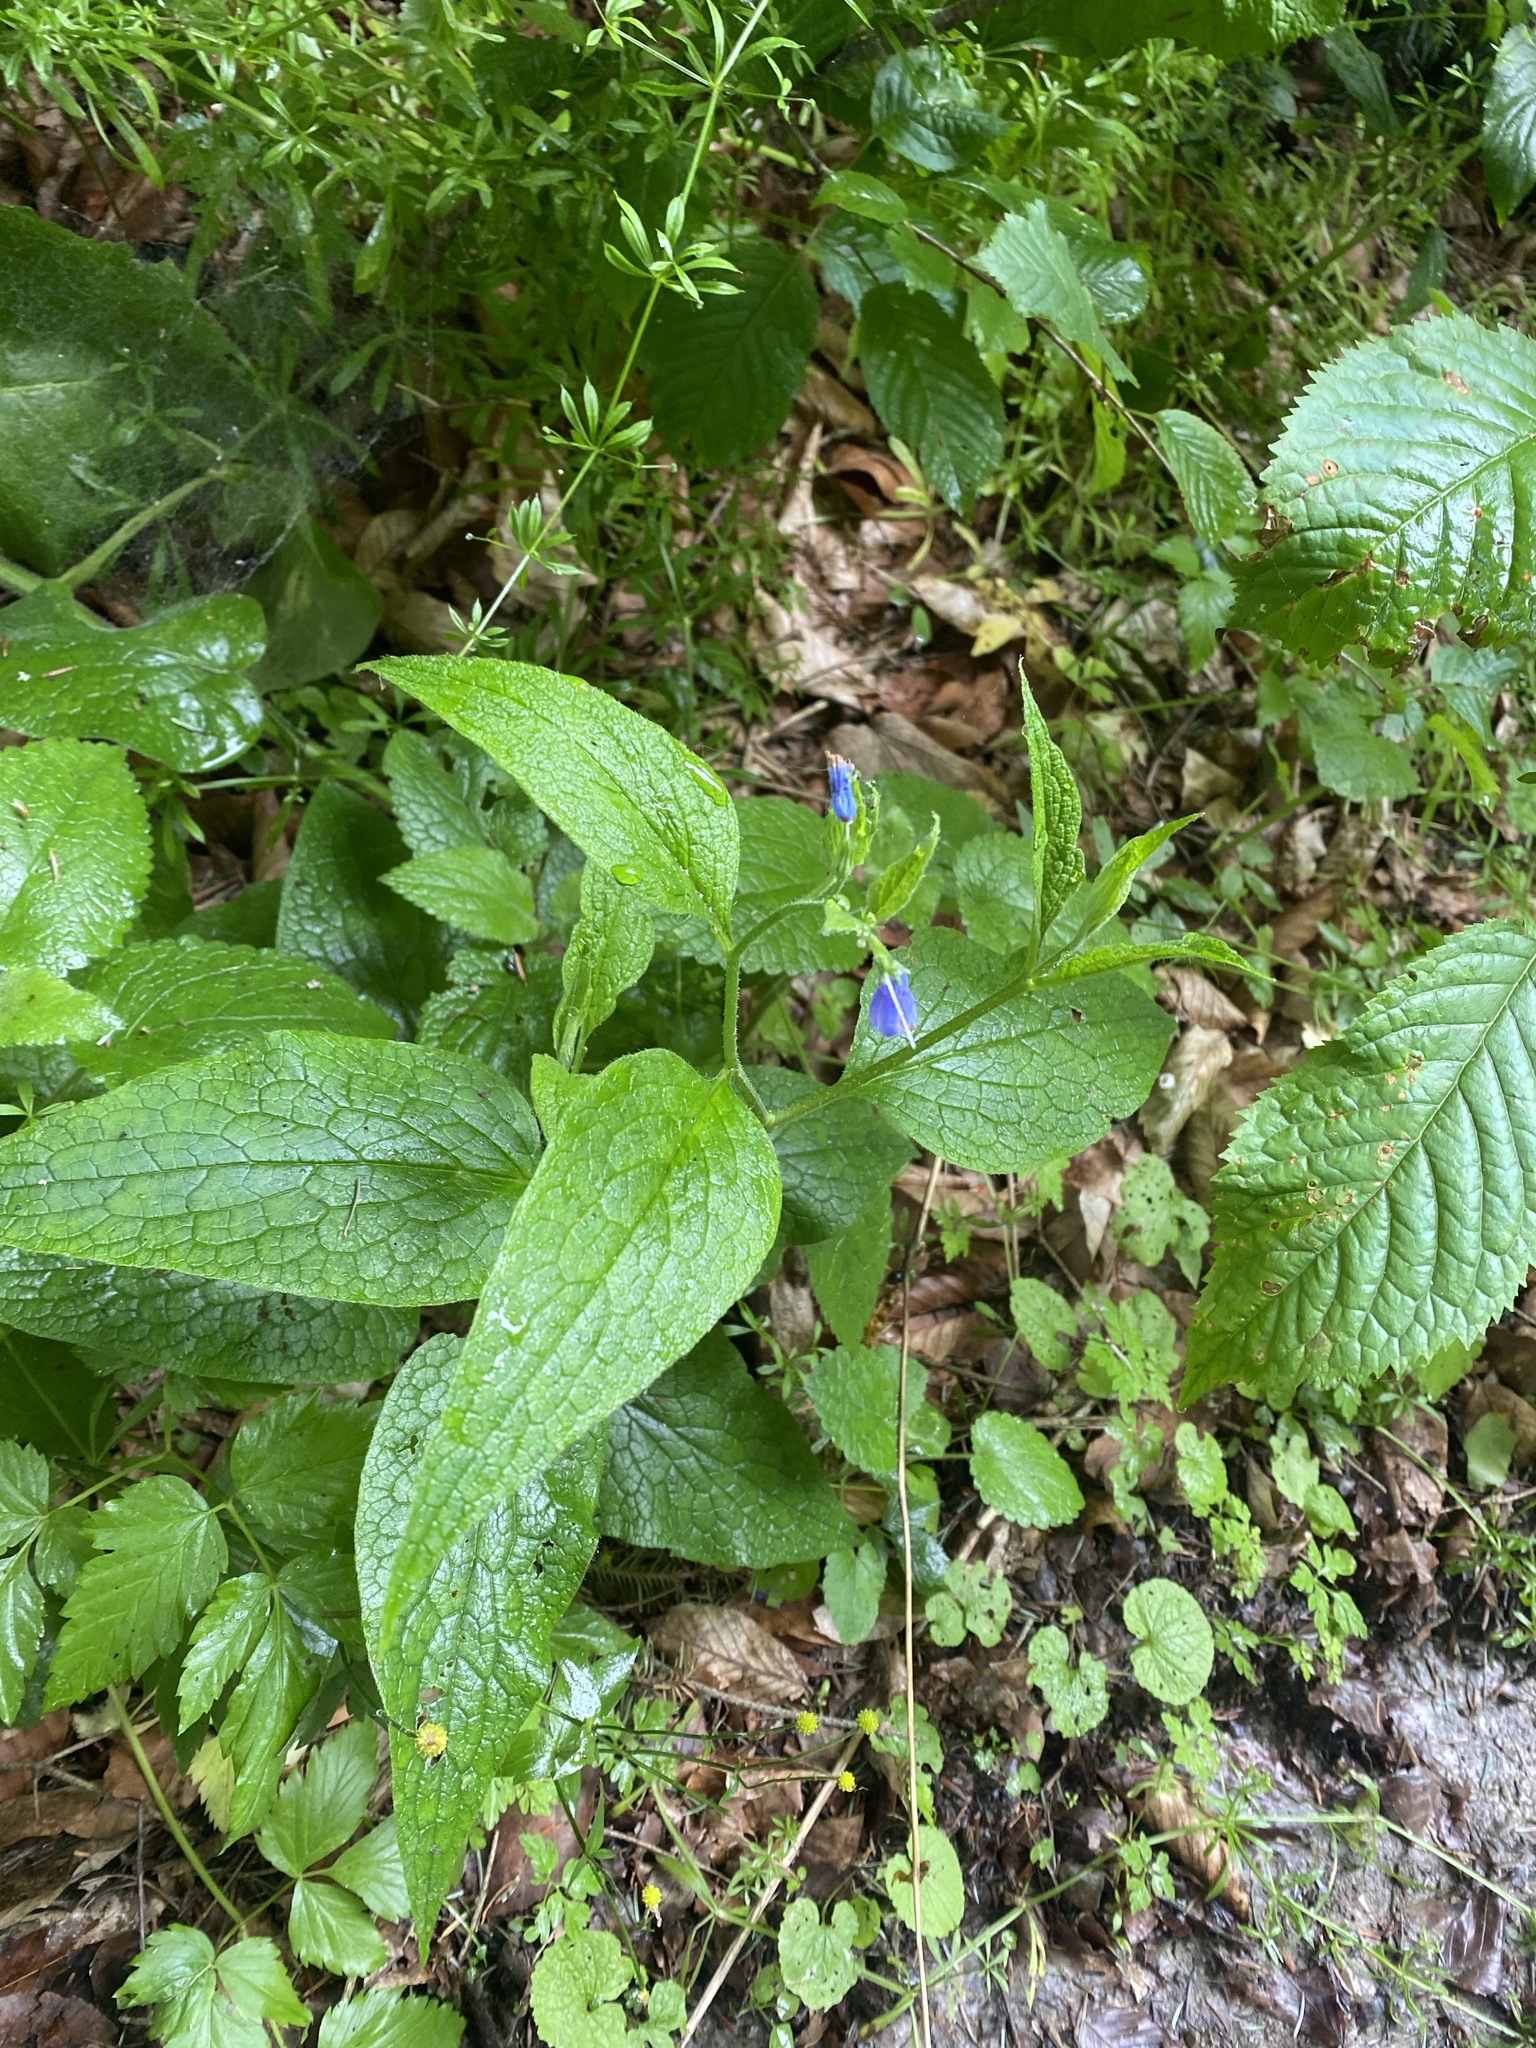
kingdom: Plantae
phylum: Tracheophyta
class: Magnoliopsida
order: Boraginales
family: Boraginaceae
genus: Symphytum
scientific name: Symphytum asperum
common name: Prickly comfrey
